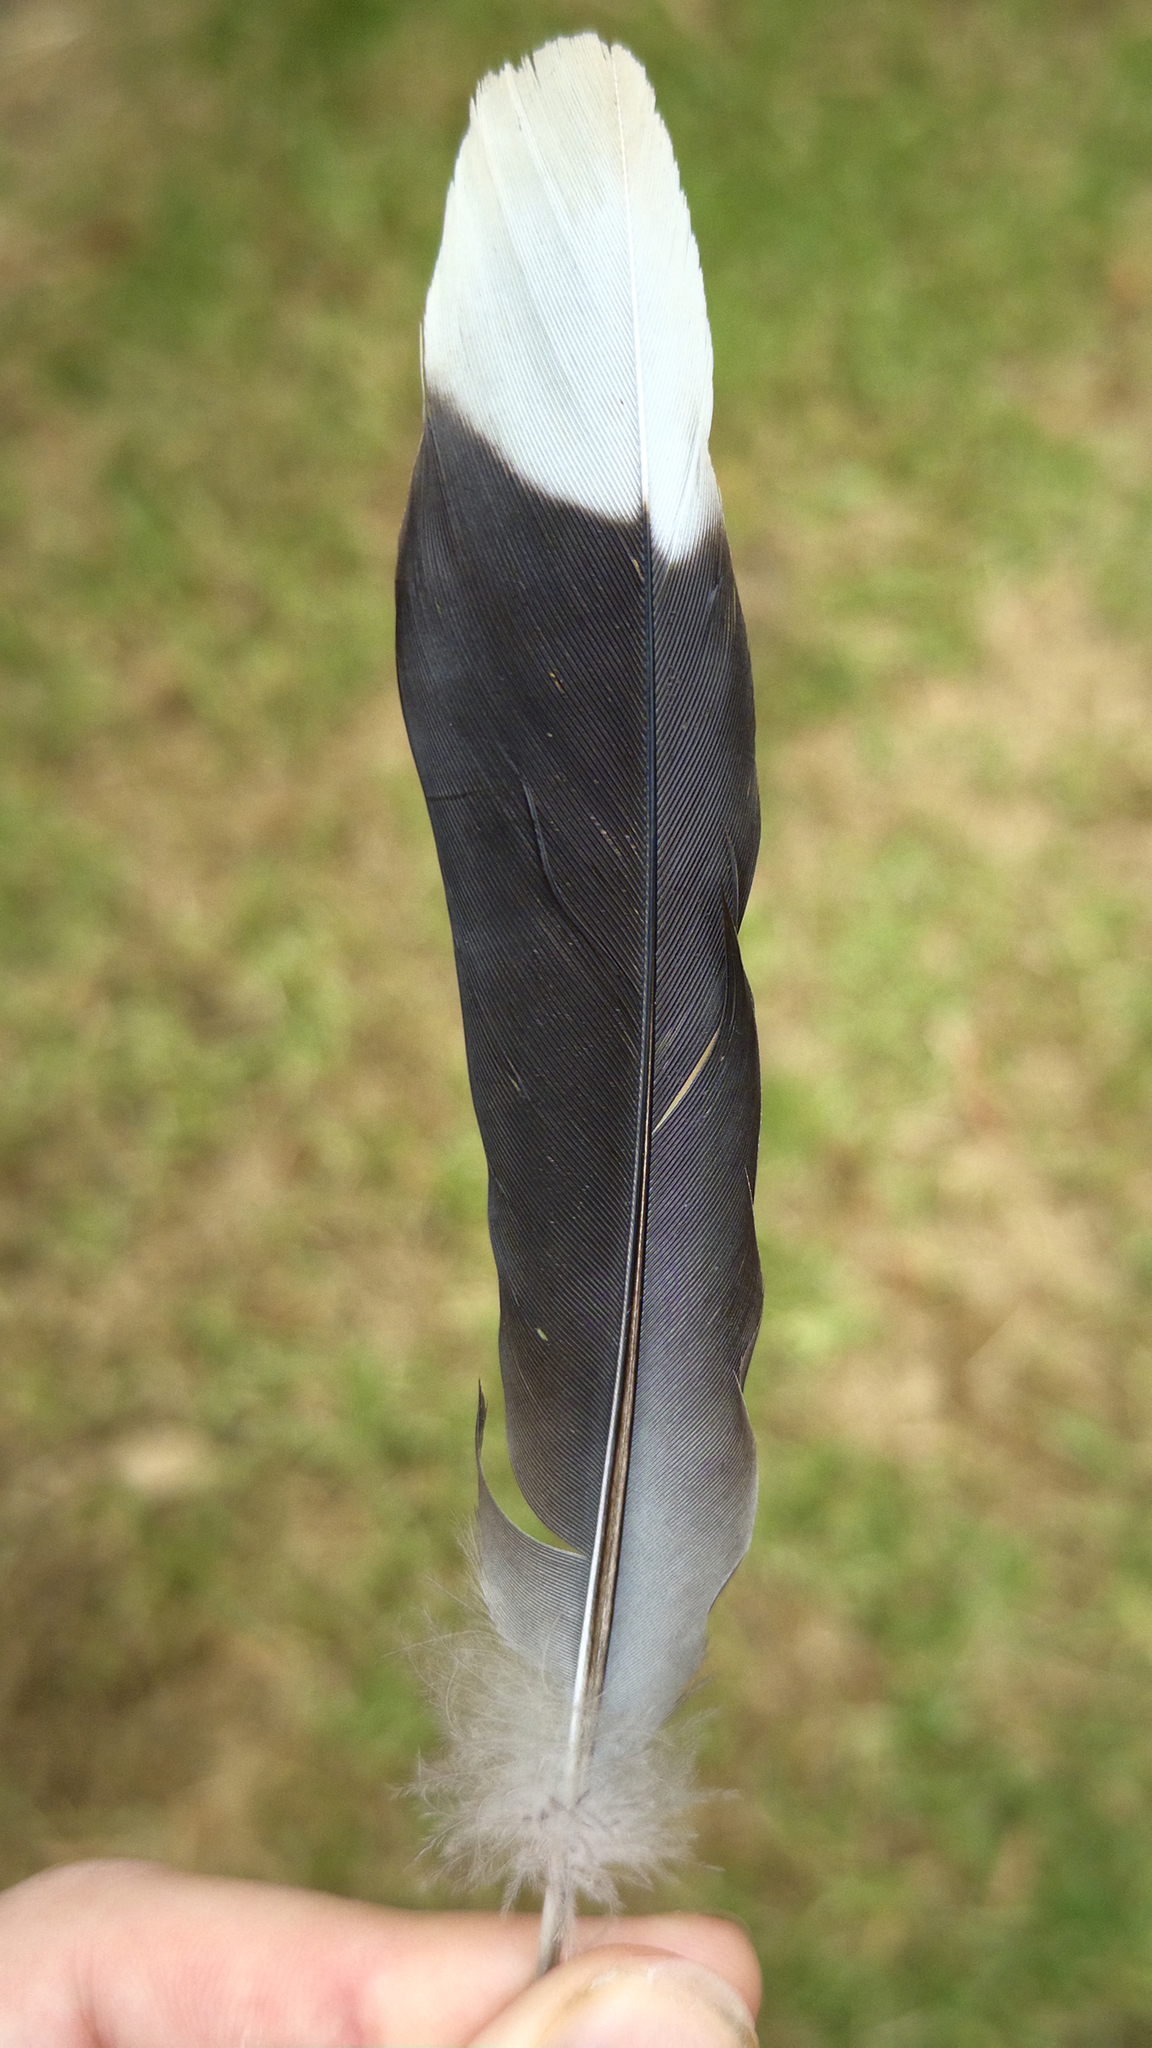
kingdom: Animalia
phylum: Chordata
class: Aves
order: Columbiformes
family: Columbidae
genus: Spilopelia
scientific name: Spilopelia chinensis
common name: Spotted dove
